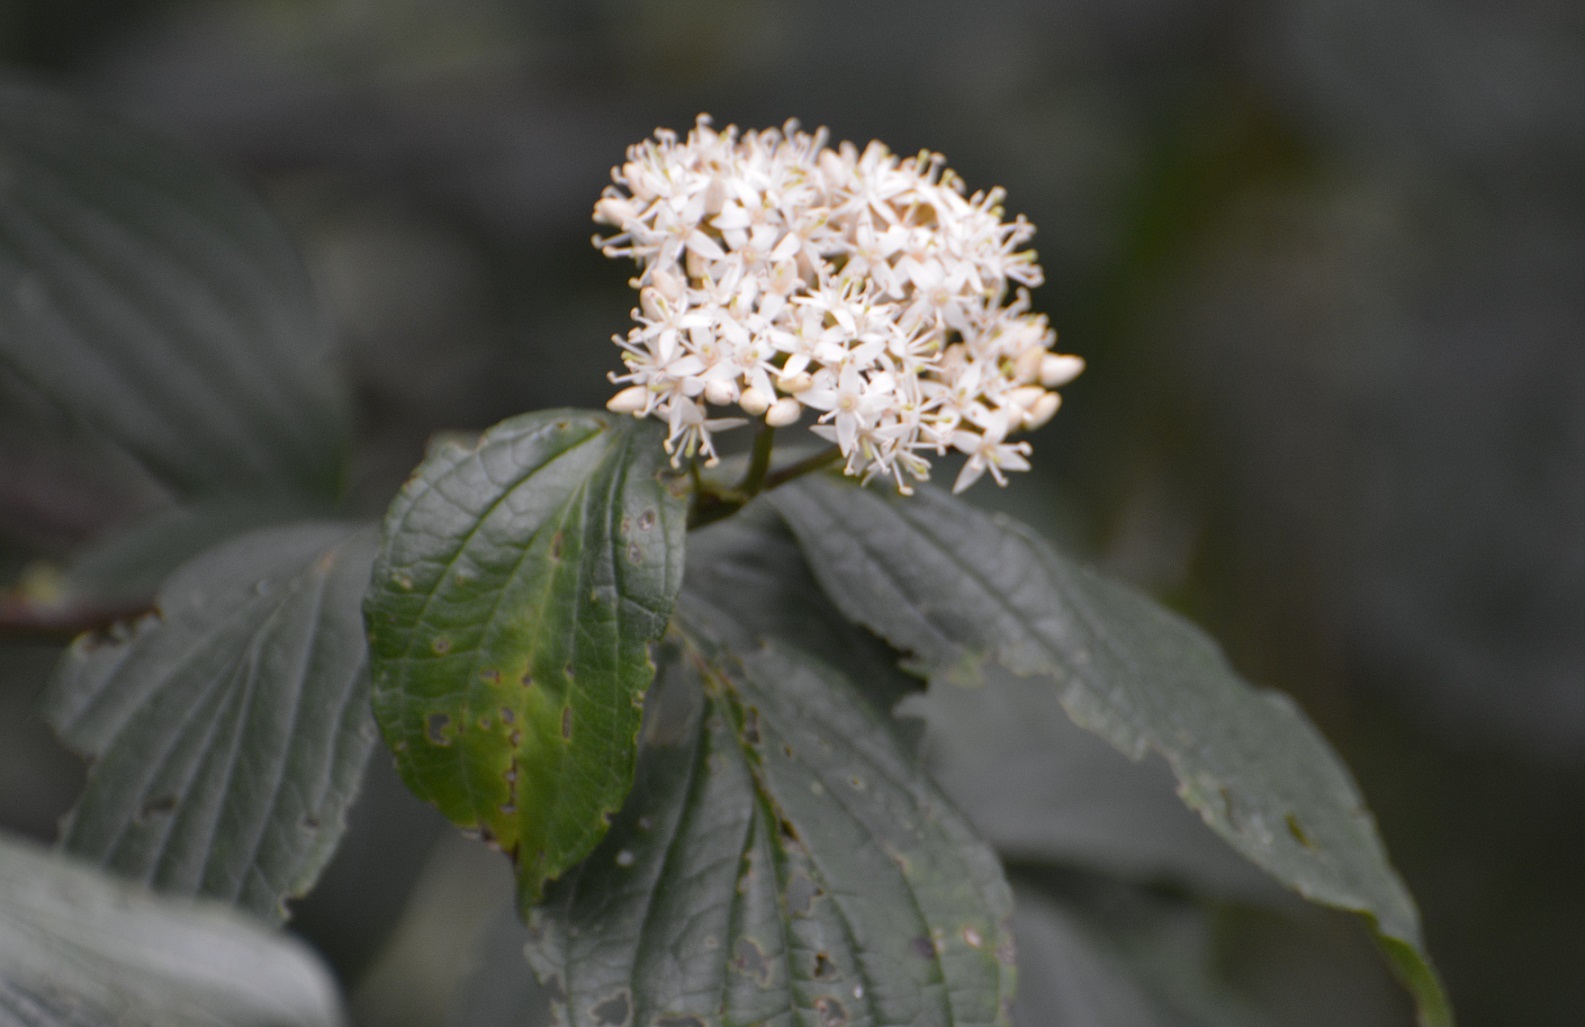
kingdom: Plantae
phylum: Tracheophyta
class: Magnoliopsida
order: Cornales
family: Cornaceae
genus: Cornus
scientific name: Cornus excelsa
